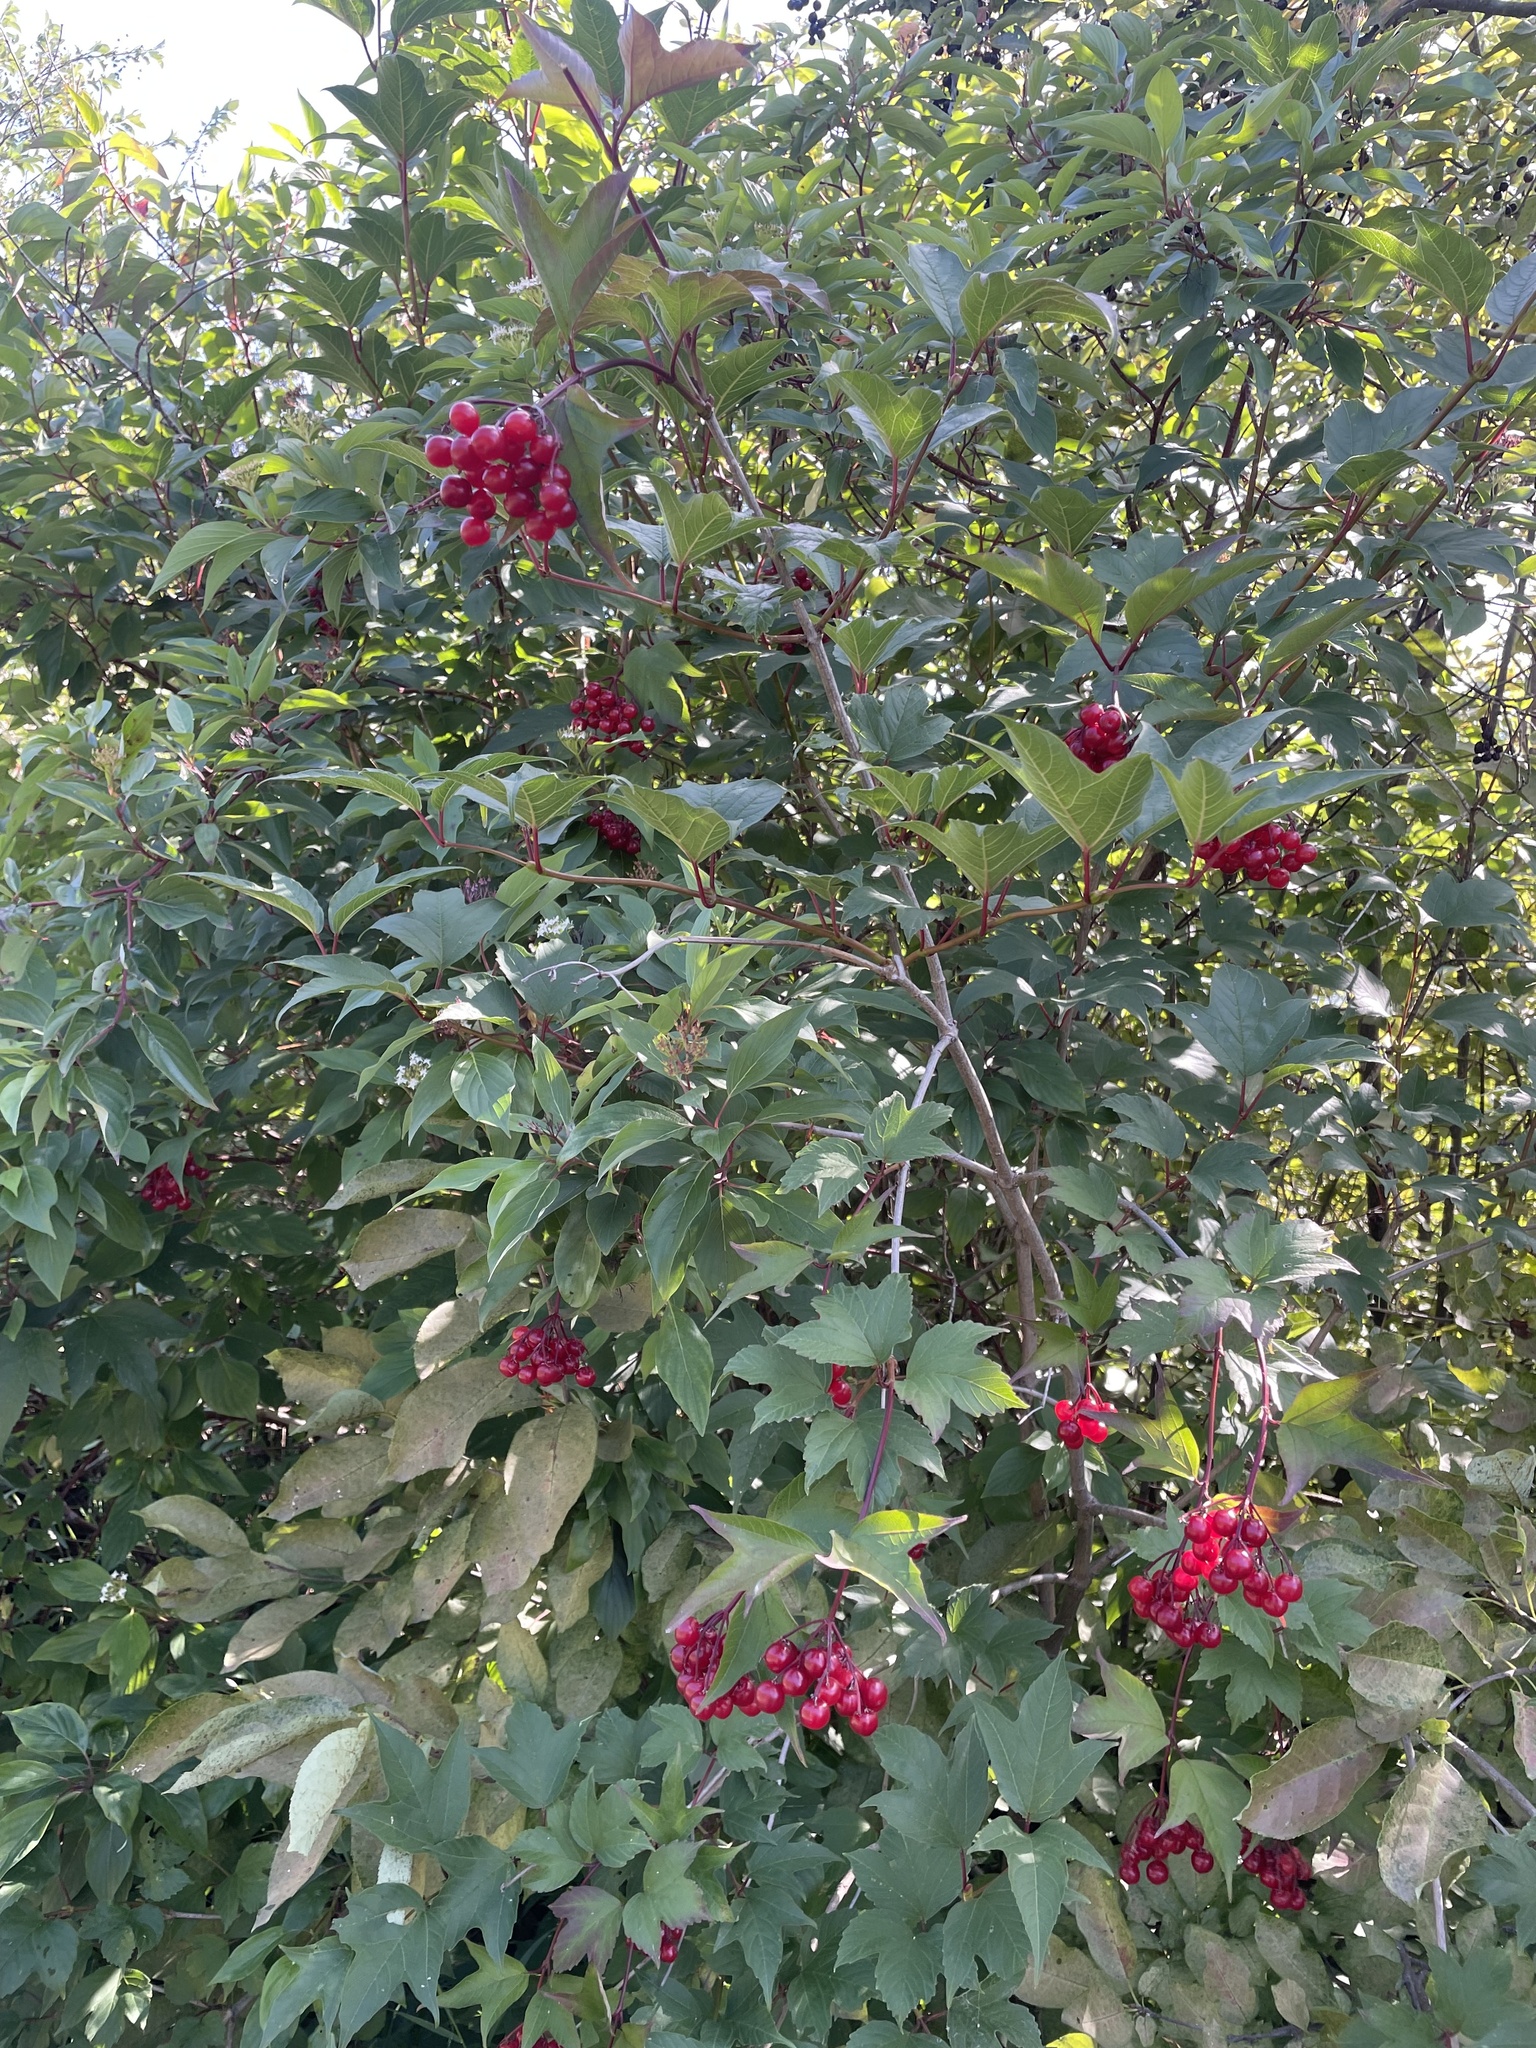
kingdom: Plantae
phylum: Tracheophyta
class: Magnoliopsida
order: Dipsacales
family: Viburnaceae
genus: Viburnum
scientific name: Viburnum opulus
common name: Guelder-rose
